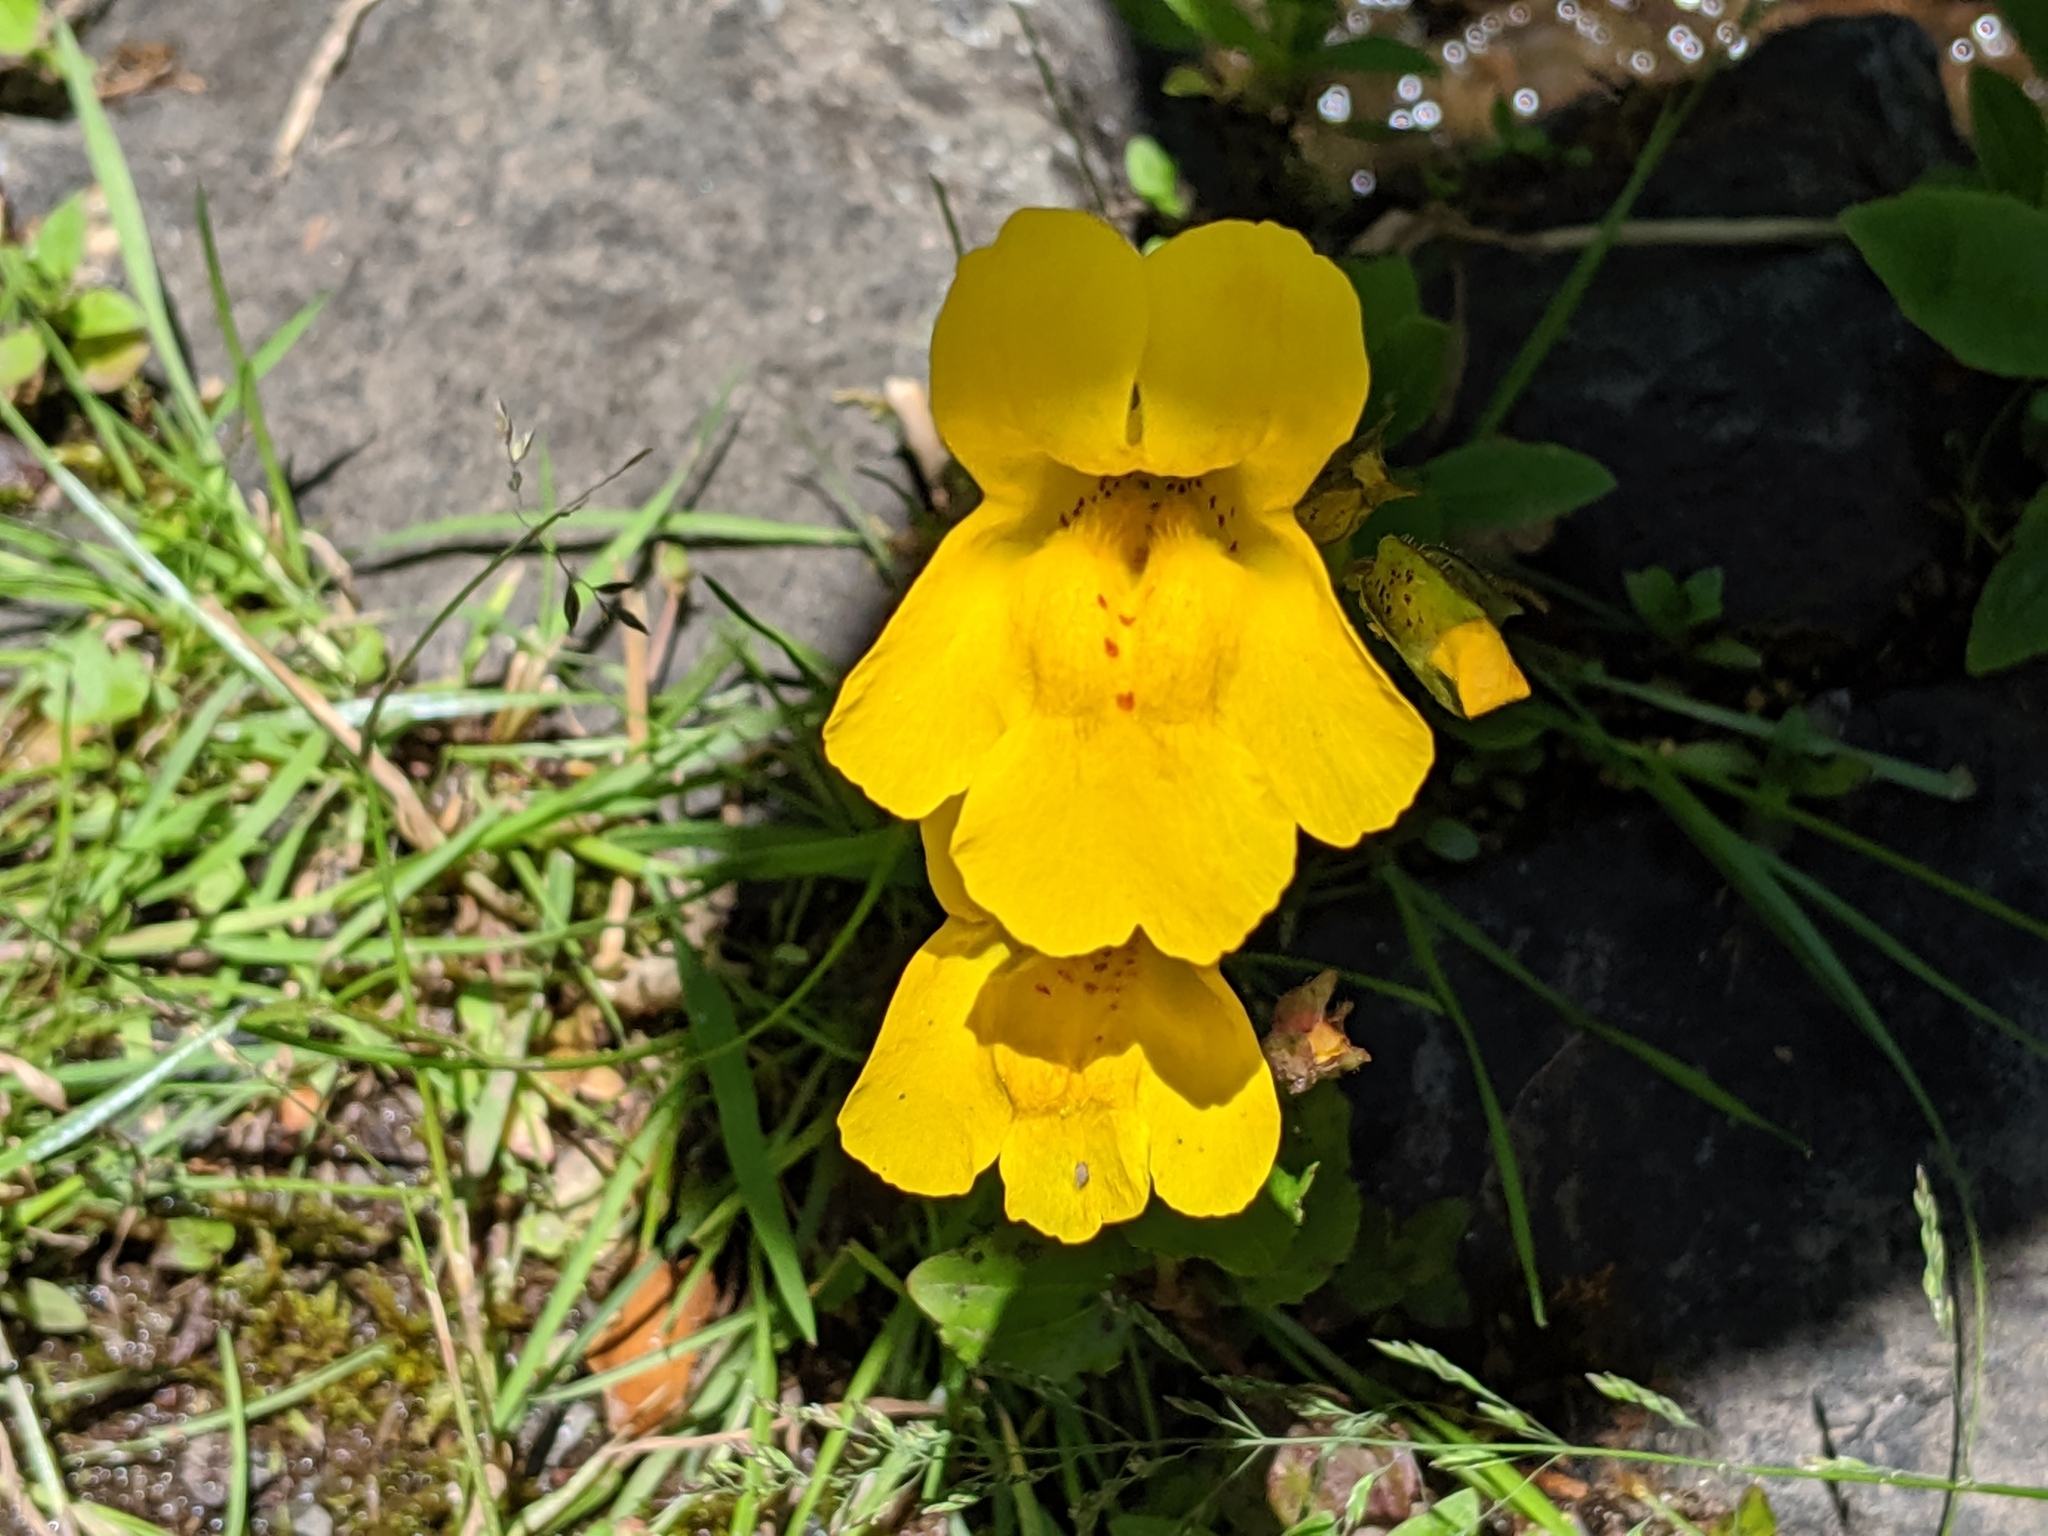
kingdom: Plantae
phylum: Tracheophyta
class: Magnoliopsida
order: Lamiales
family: Phrymaceae
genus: Erythranthe
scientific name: Erythranthe veronicifolia
